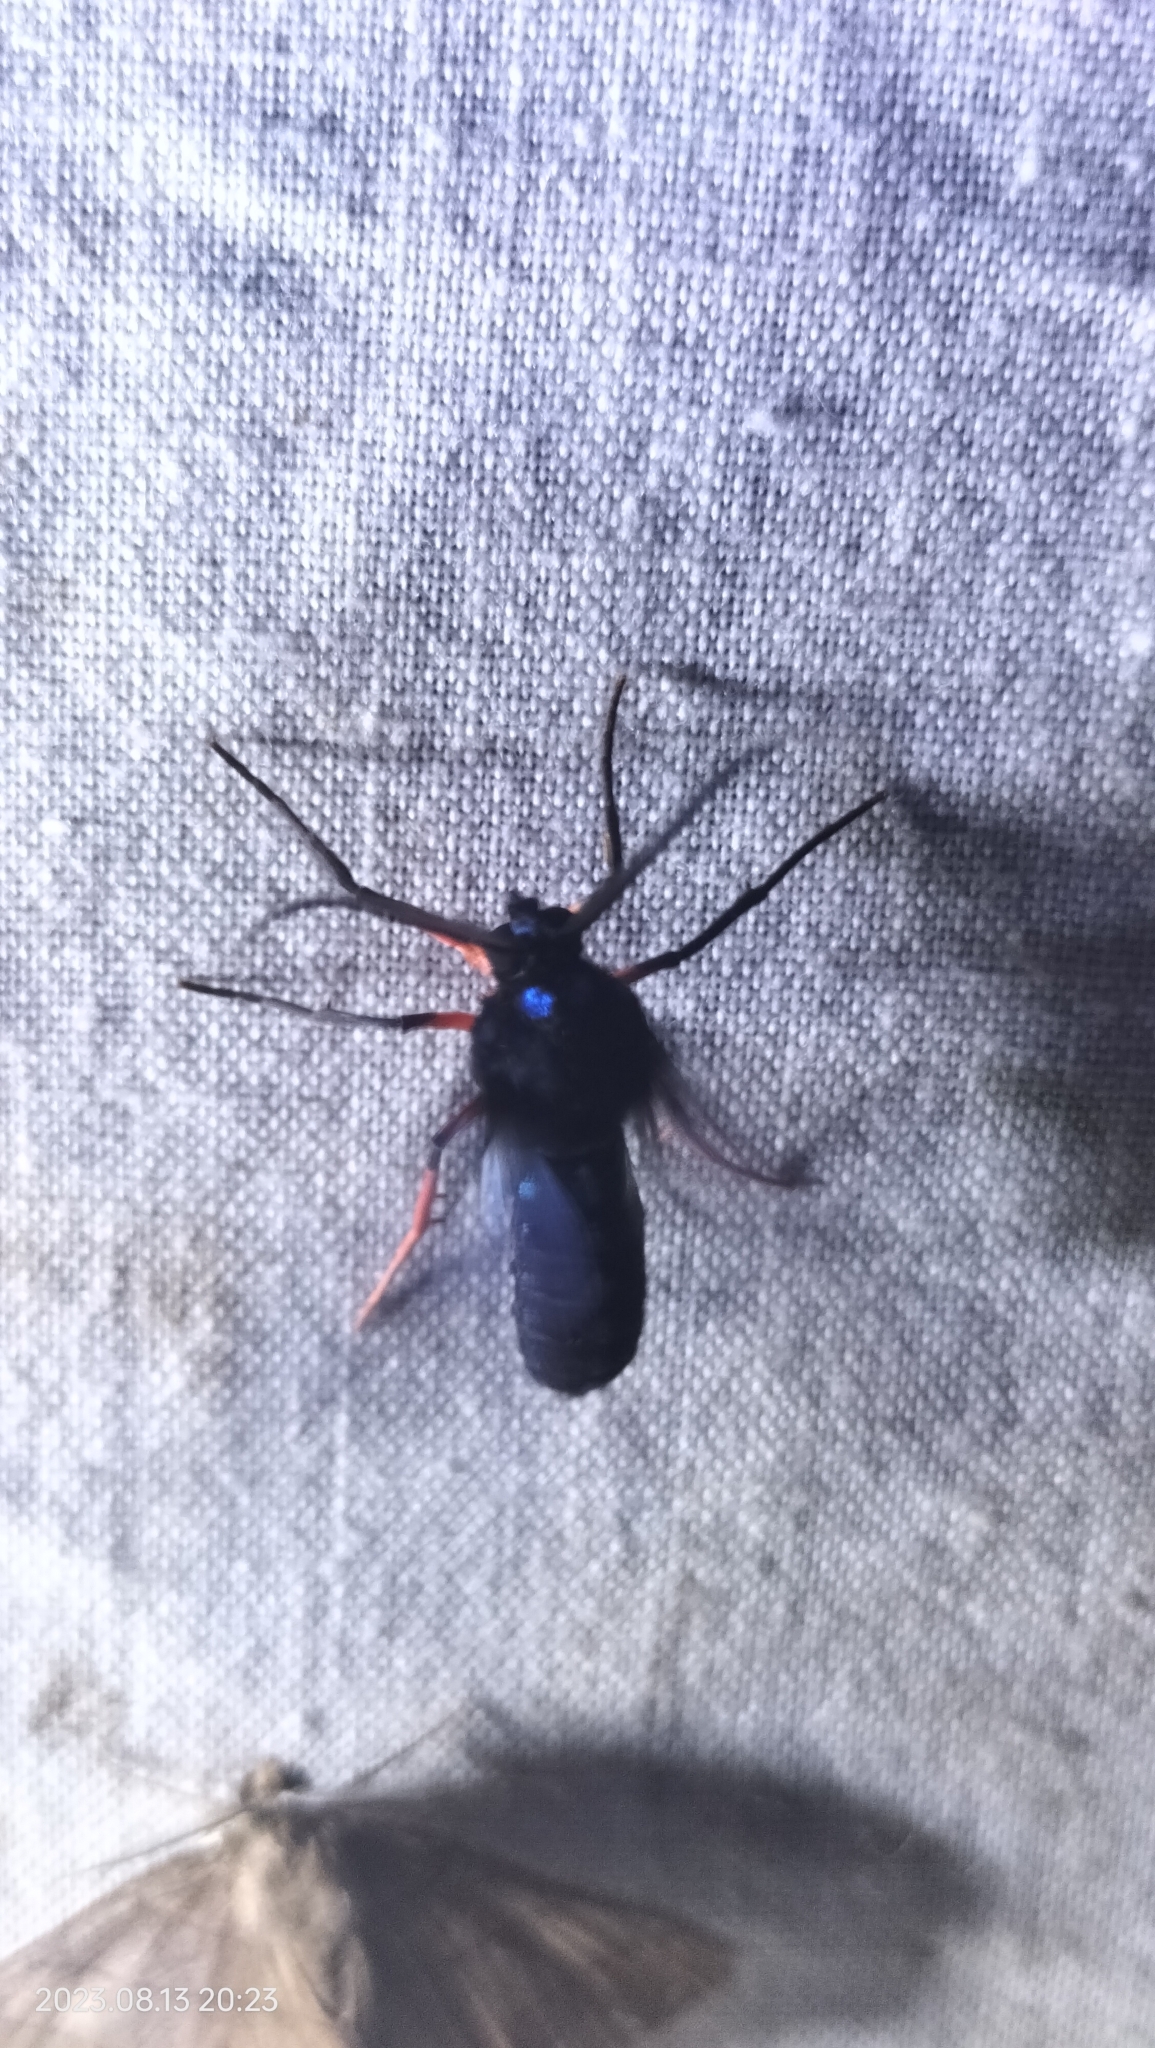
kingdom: Animalia
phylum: Arthropoda
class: Insecta
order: Lepidoptera
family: Erebidae
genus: Cosmosoma
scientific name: Cosmosoma subflamma
